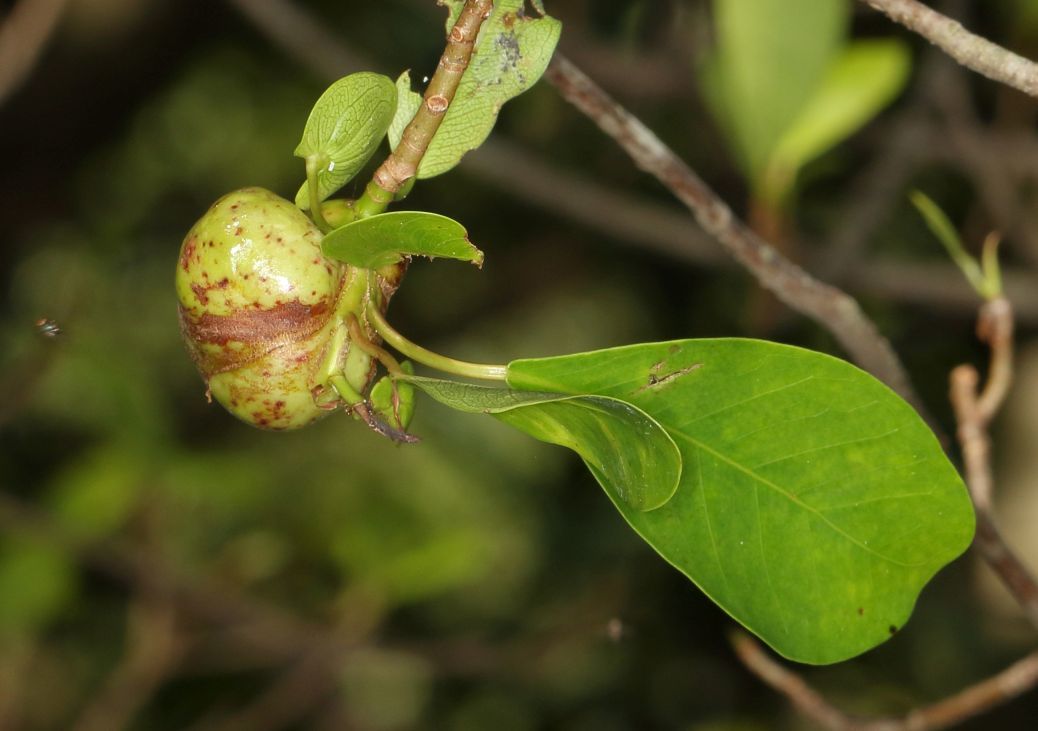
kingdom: Plantae
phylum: Tracheophyta
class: Magnoliopsida
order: Rosales
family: Moraceae
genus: Ficus
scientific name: Ficus thonningii
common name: Fig
